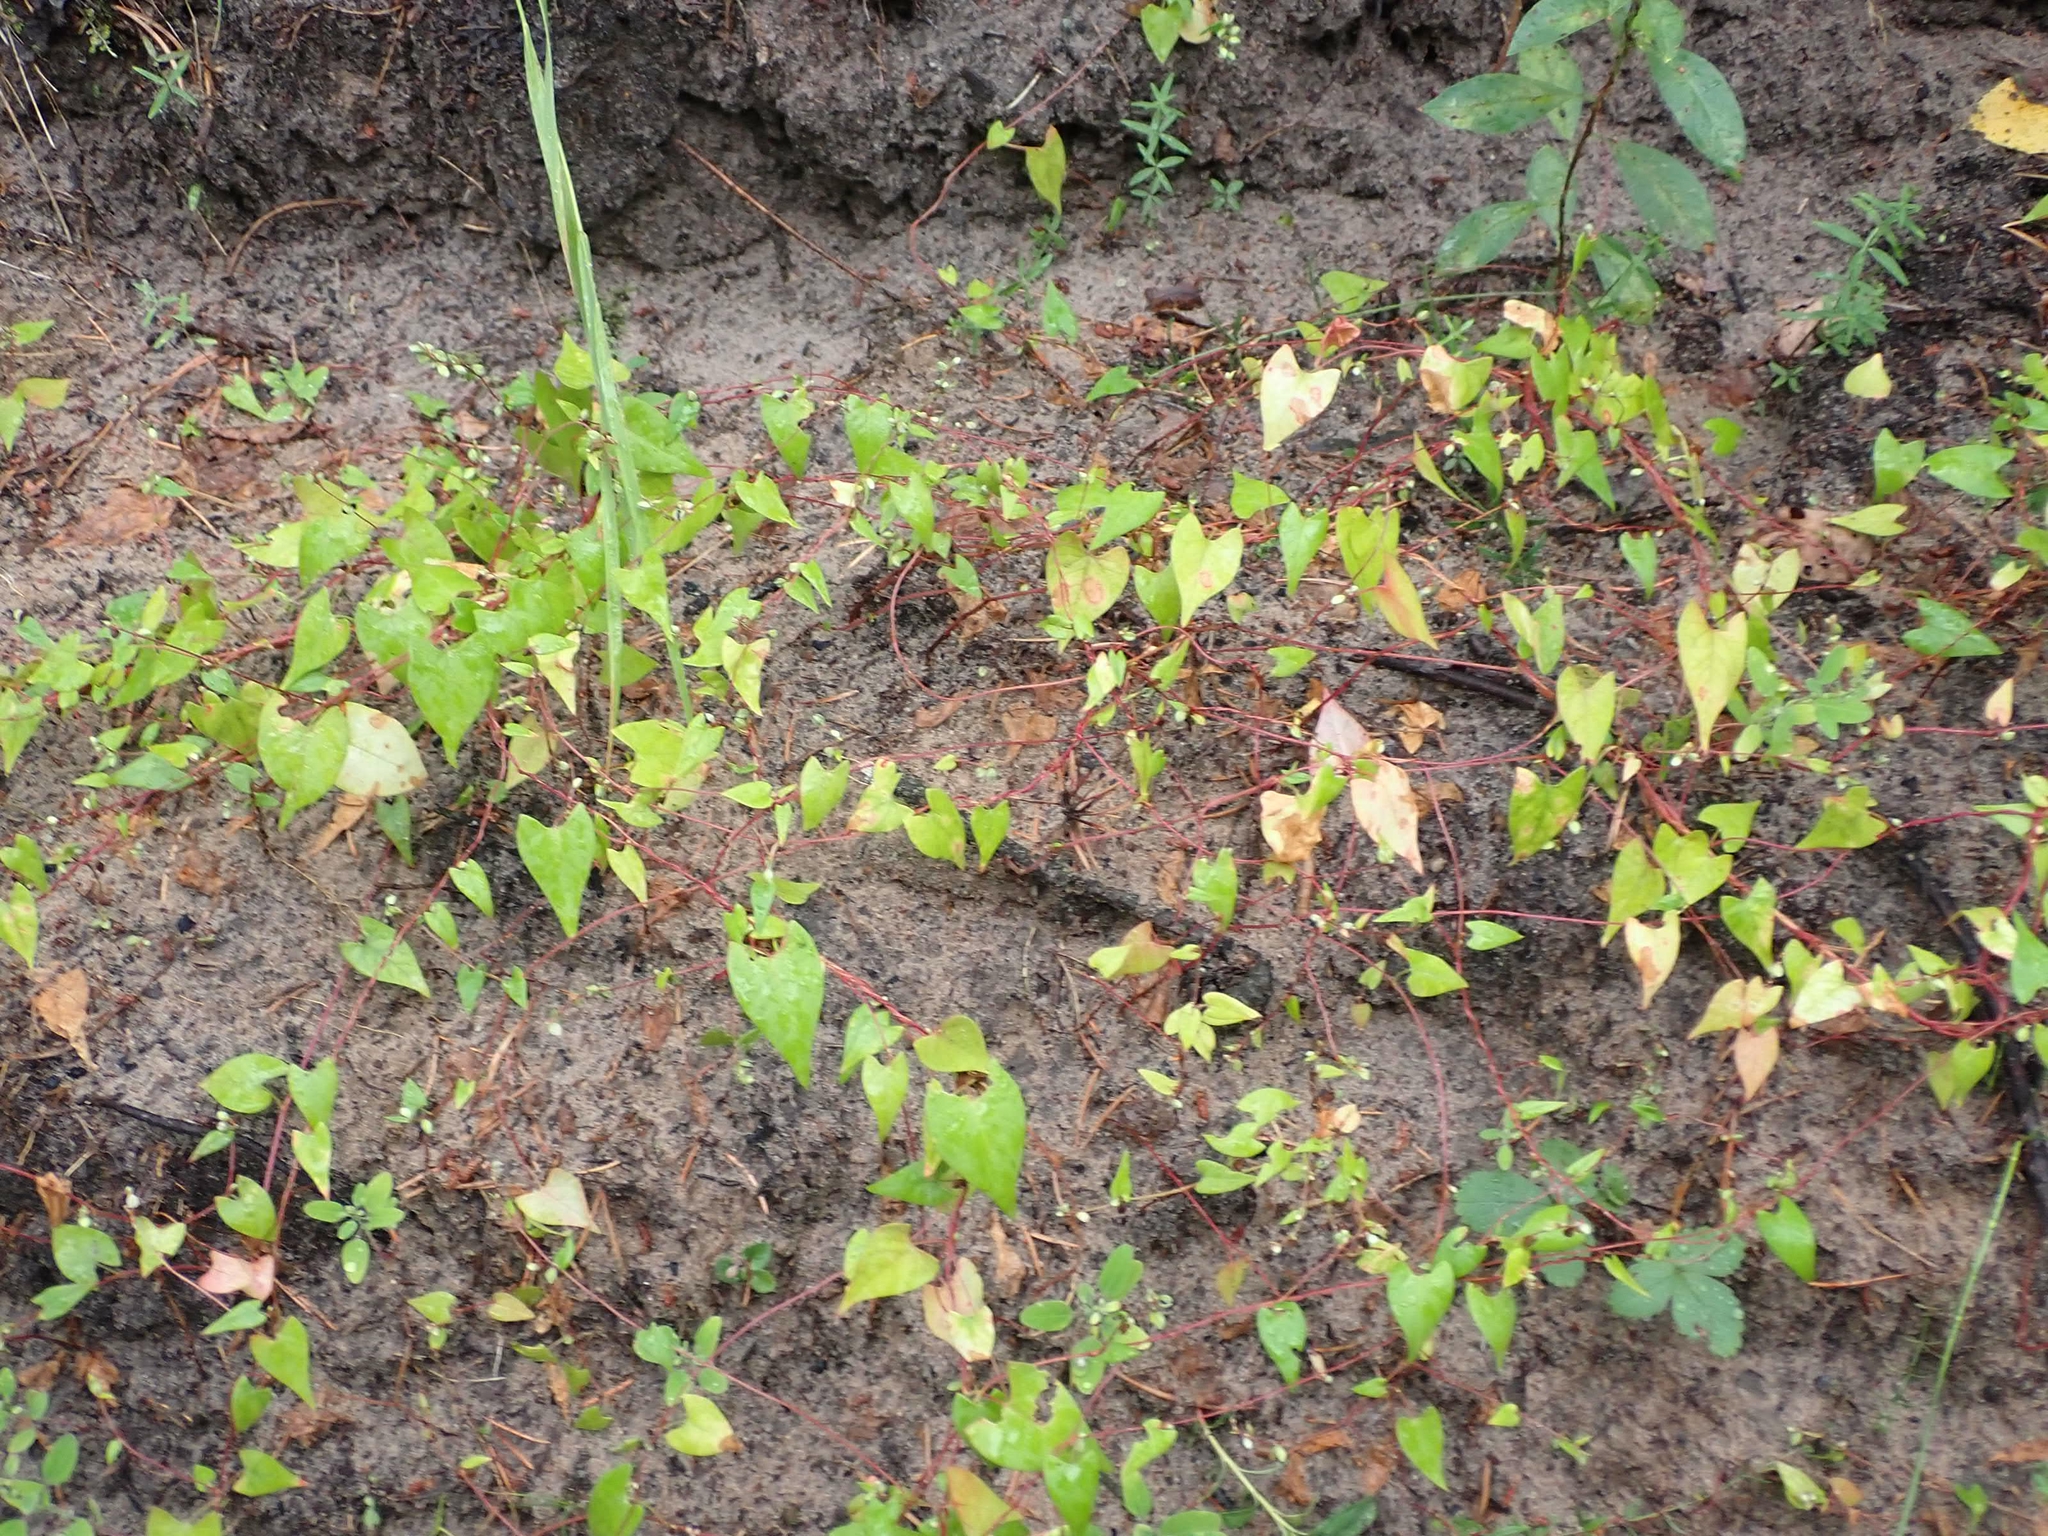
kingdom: Plantae
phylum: Tracheophyta
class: Magnoliopsida
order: Caryophyllales
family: Polygonaceae
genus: Fallopia
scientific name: Fallopia convolvulus
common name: Black bindweed
